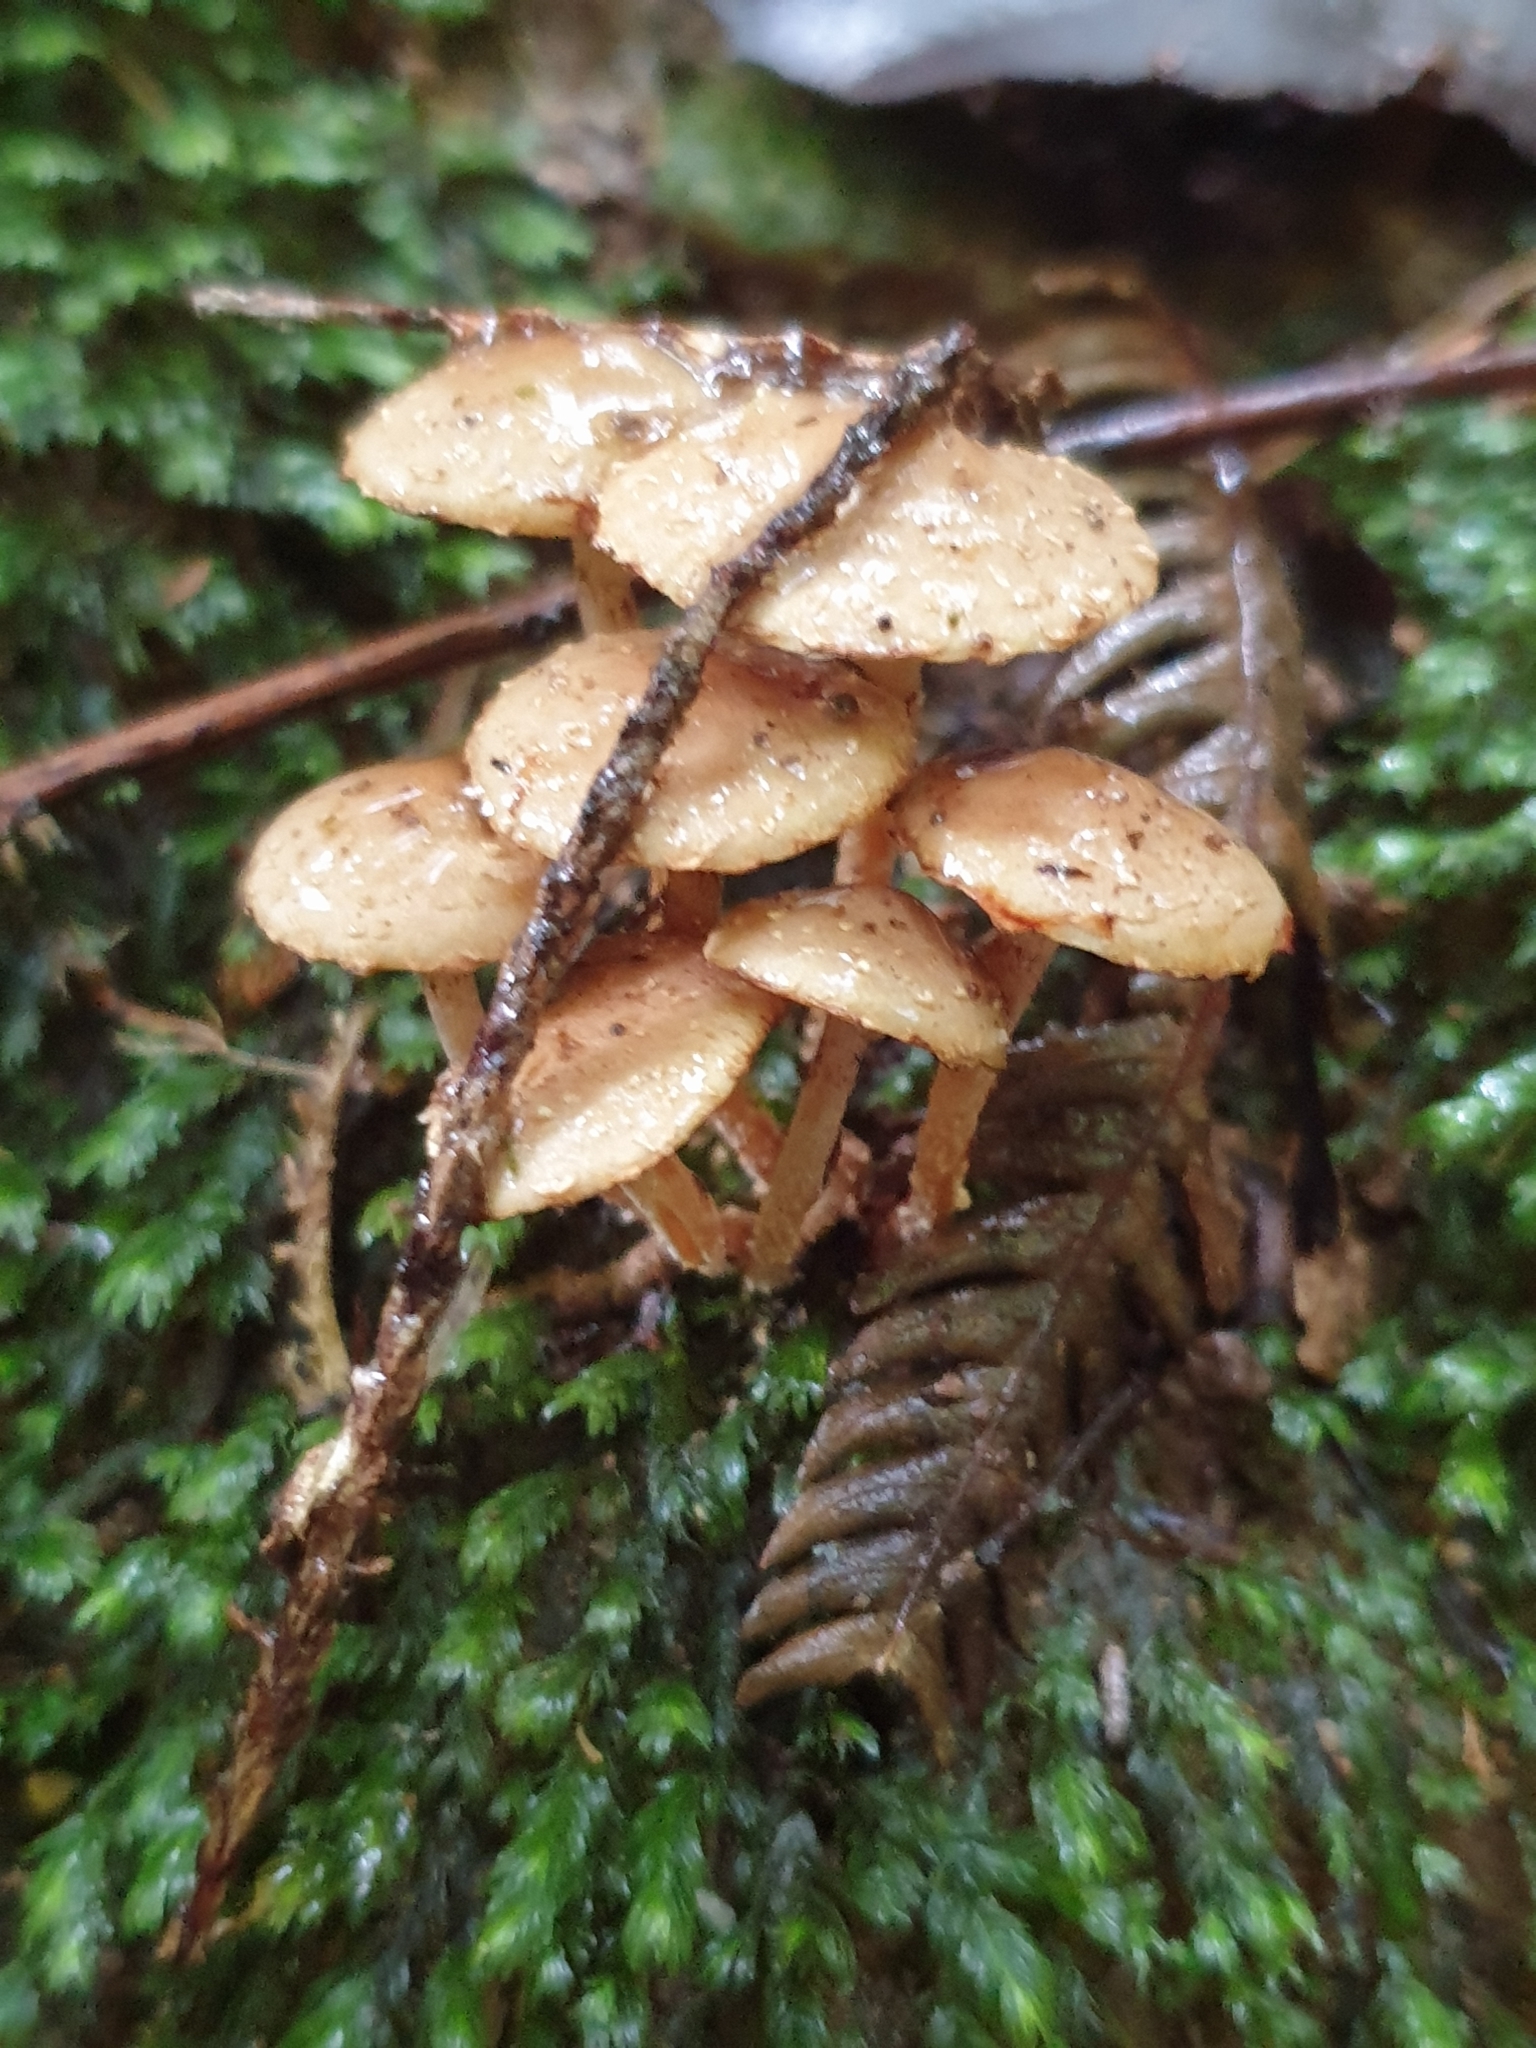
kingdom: Fungi
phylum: Basidiomycota
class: Agaricomycetes
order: Agaricales
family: Strophariaceae
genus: Pholiota
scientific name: Pholiota subflammans
